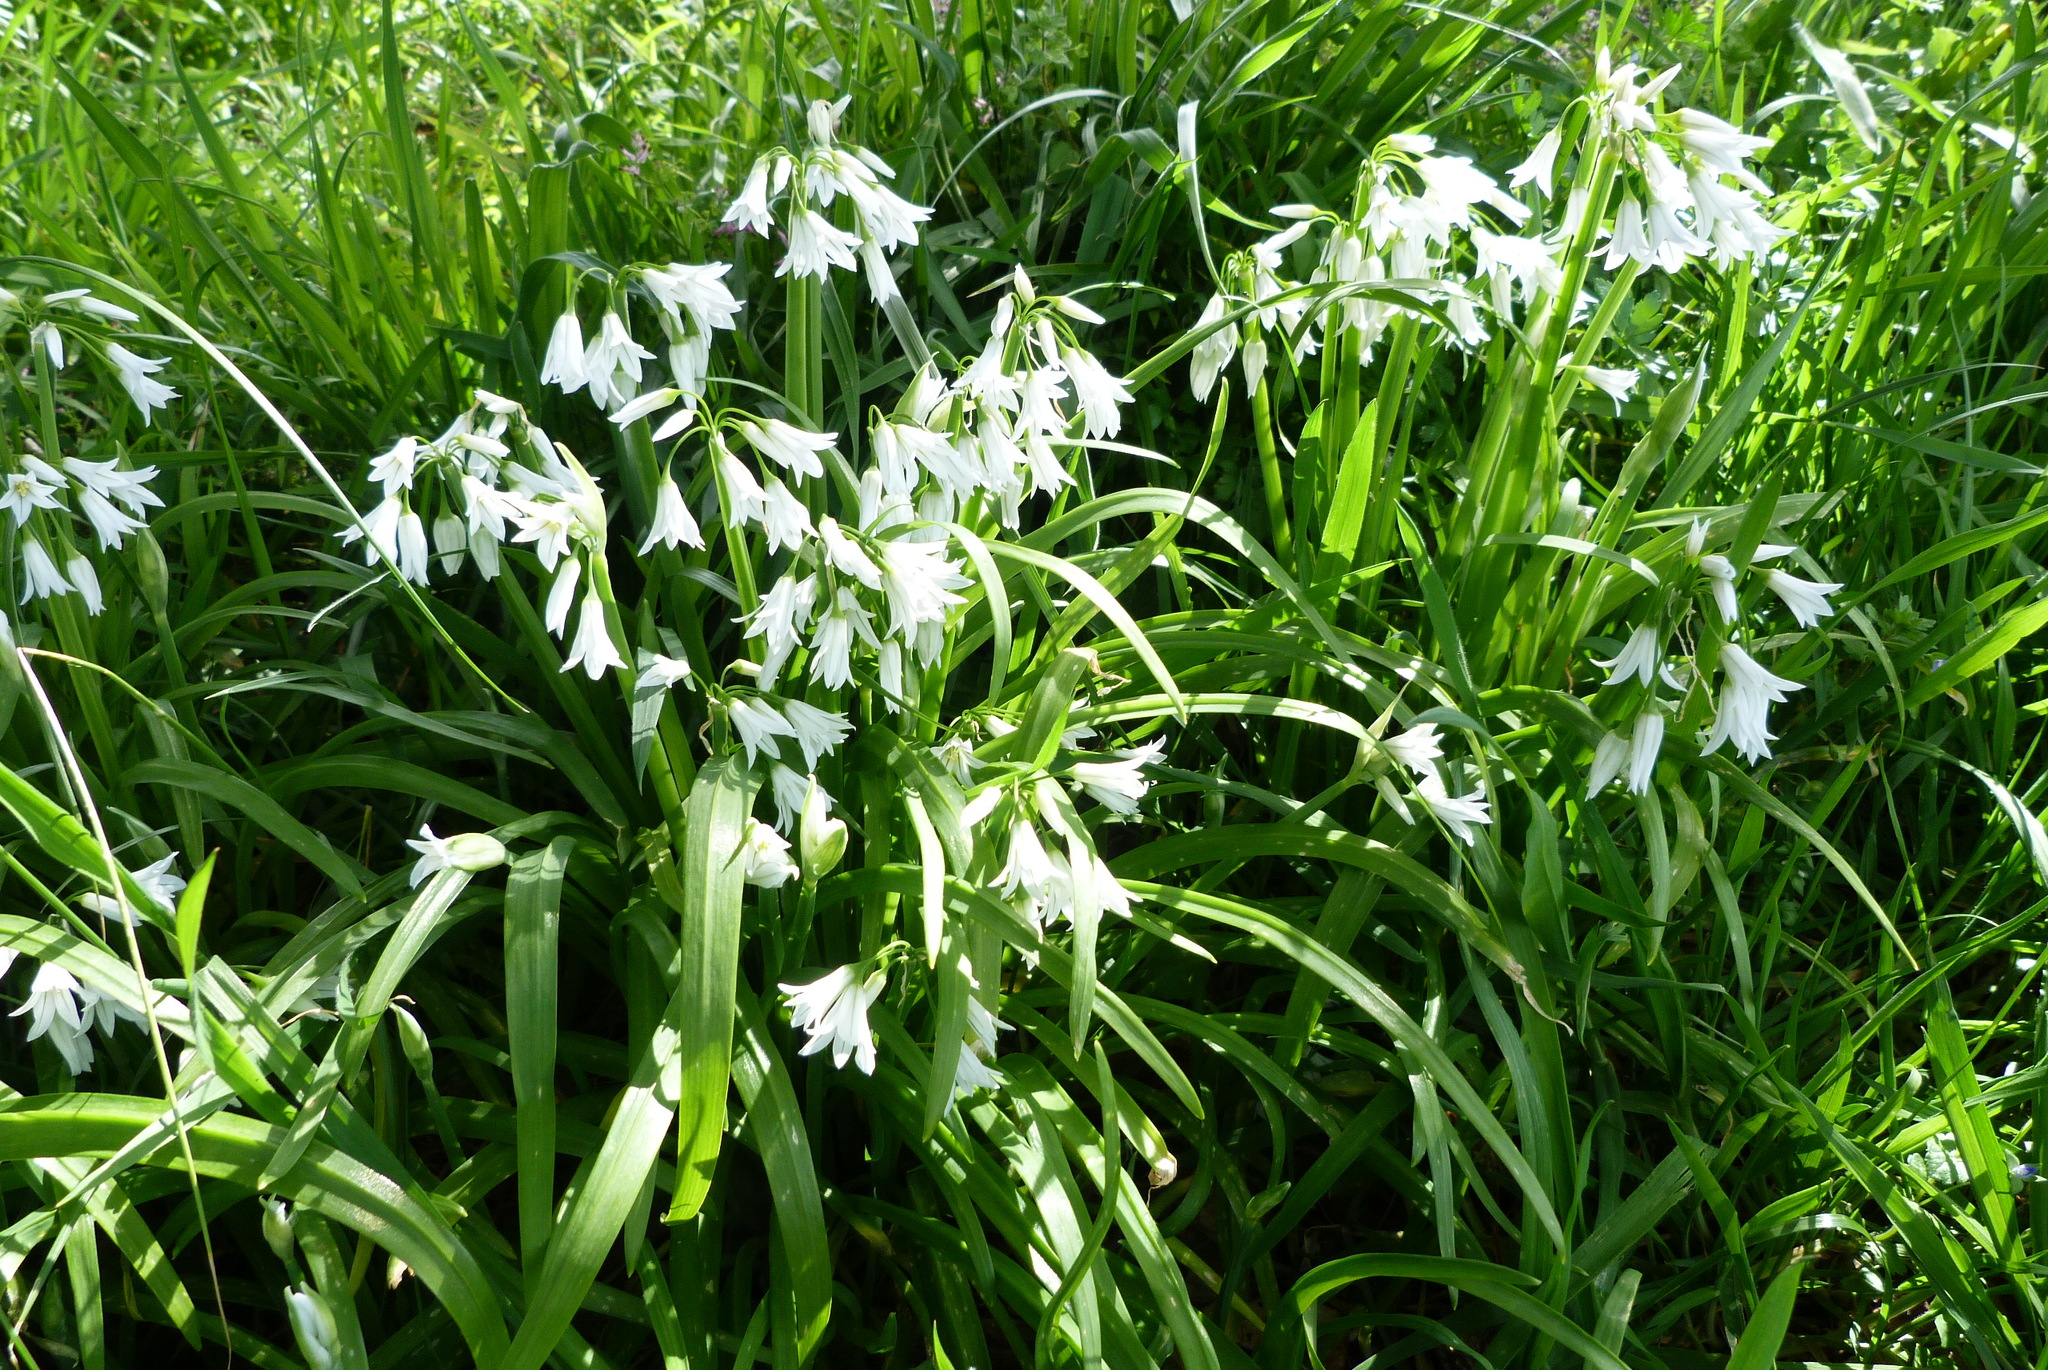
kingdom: Plantae
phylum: Tracheophyta
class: Liliopsida
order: Asparagales
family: Amaryllidaceae
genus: Allium
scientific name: Allium triquetrum
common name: Three-cornered garlic
